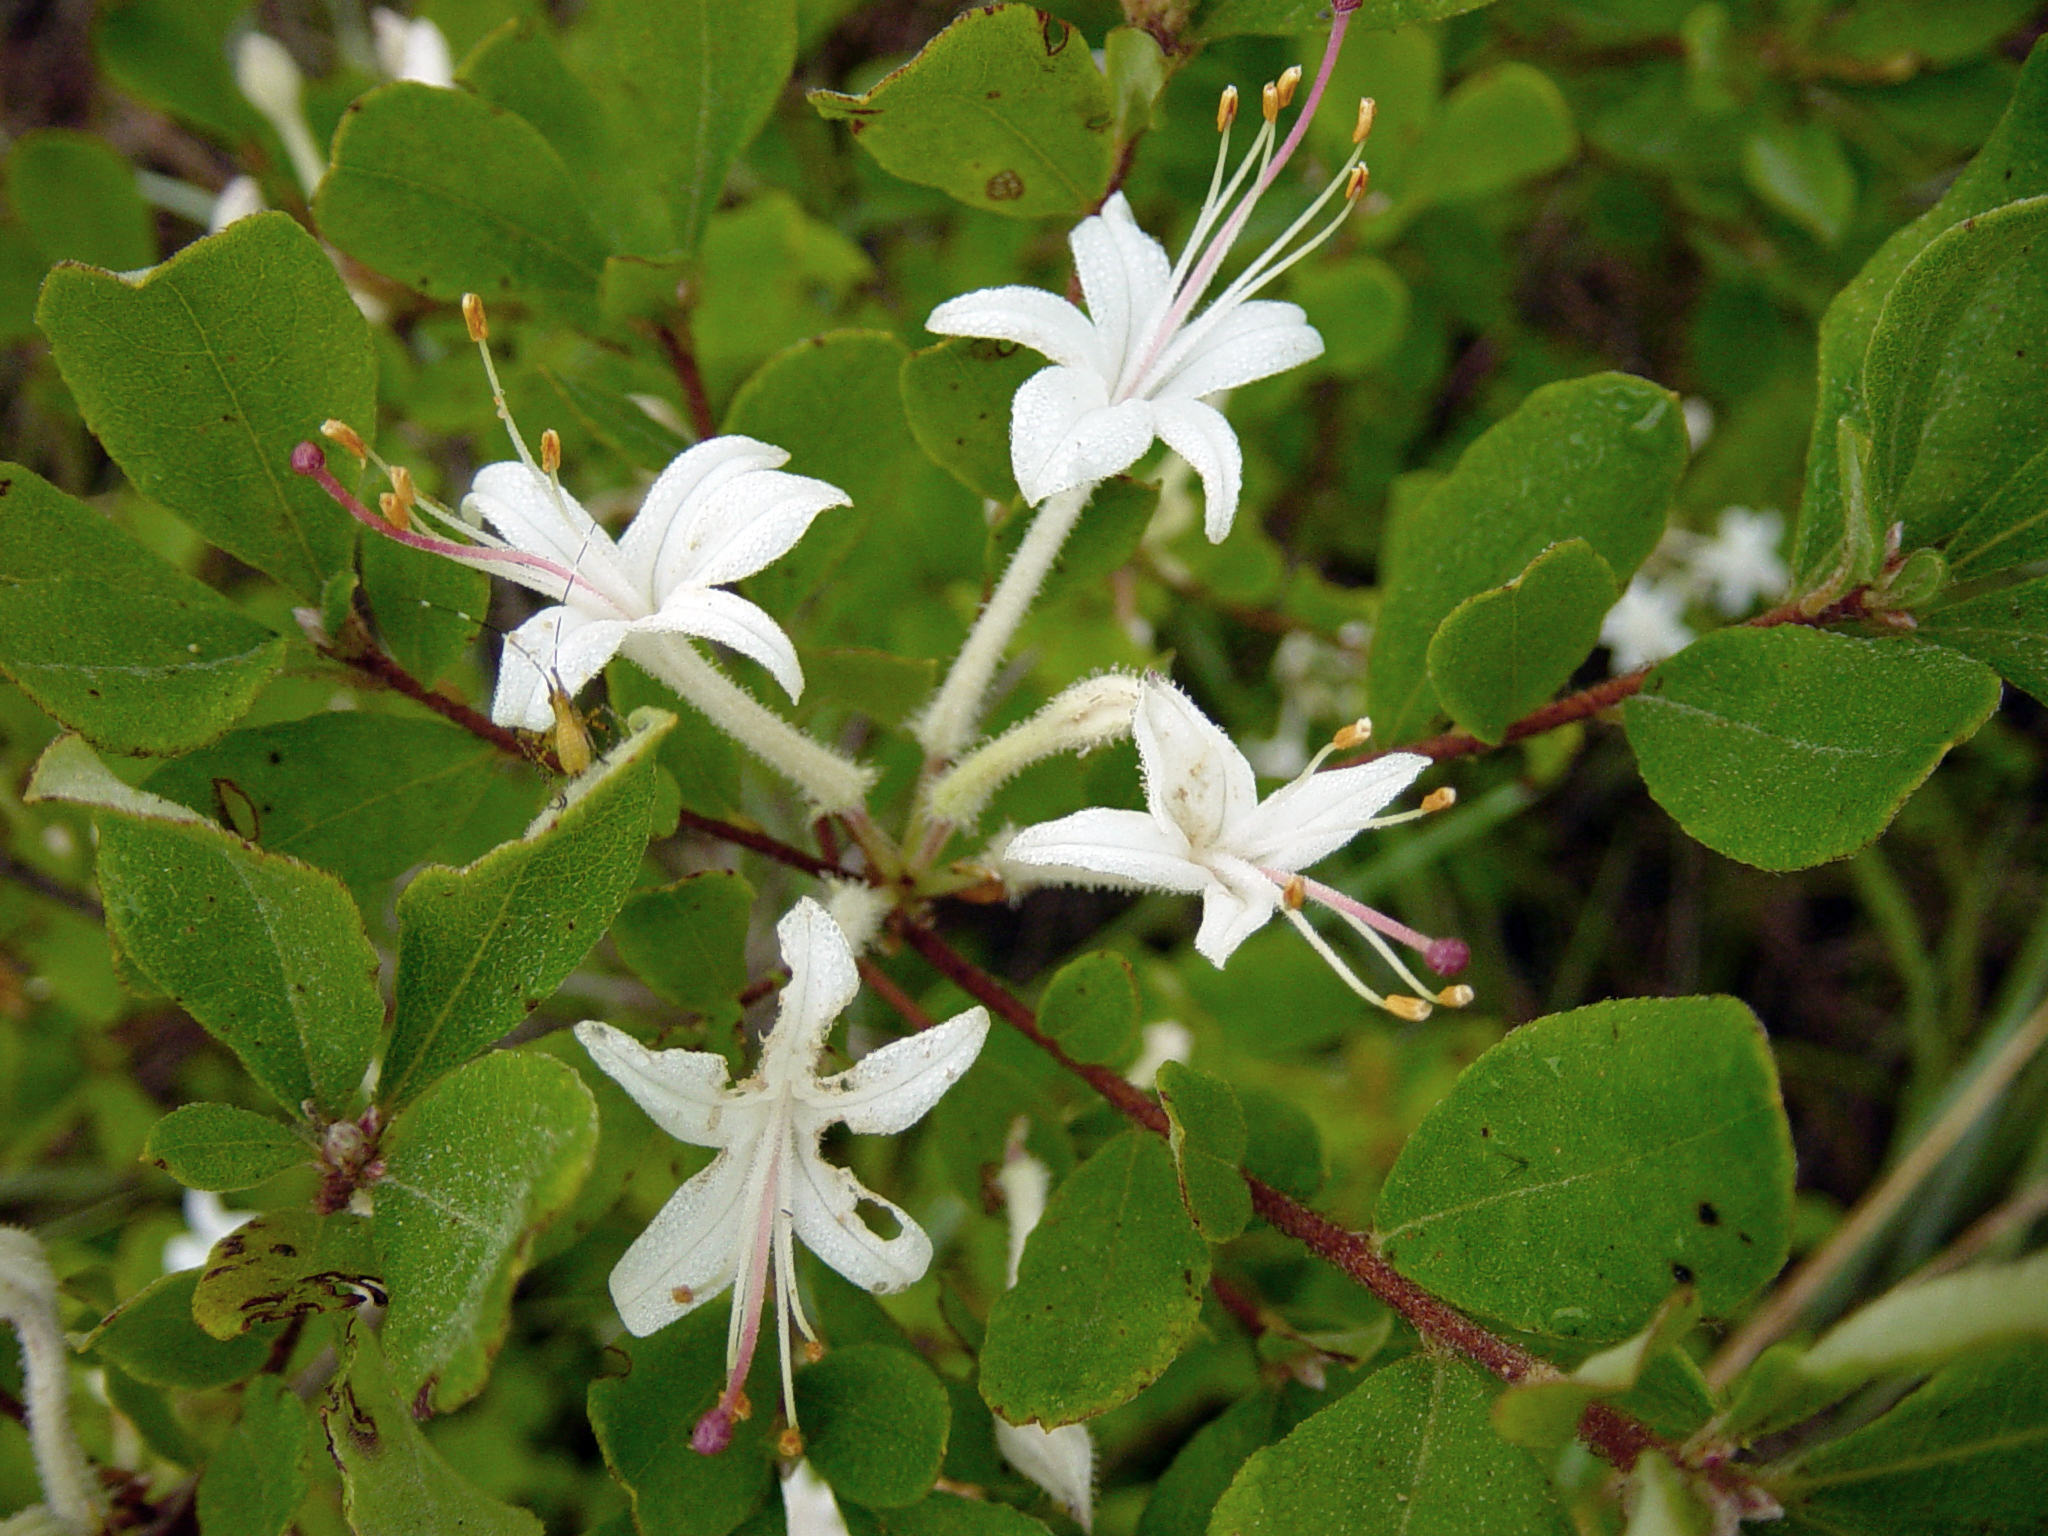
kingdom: Plantae
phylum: Tracheophyta
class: Magnoliopsida
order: Ericales
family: Ericaceae
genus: Rhododendron
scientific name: Rhododendron serrulatum
